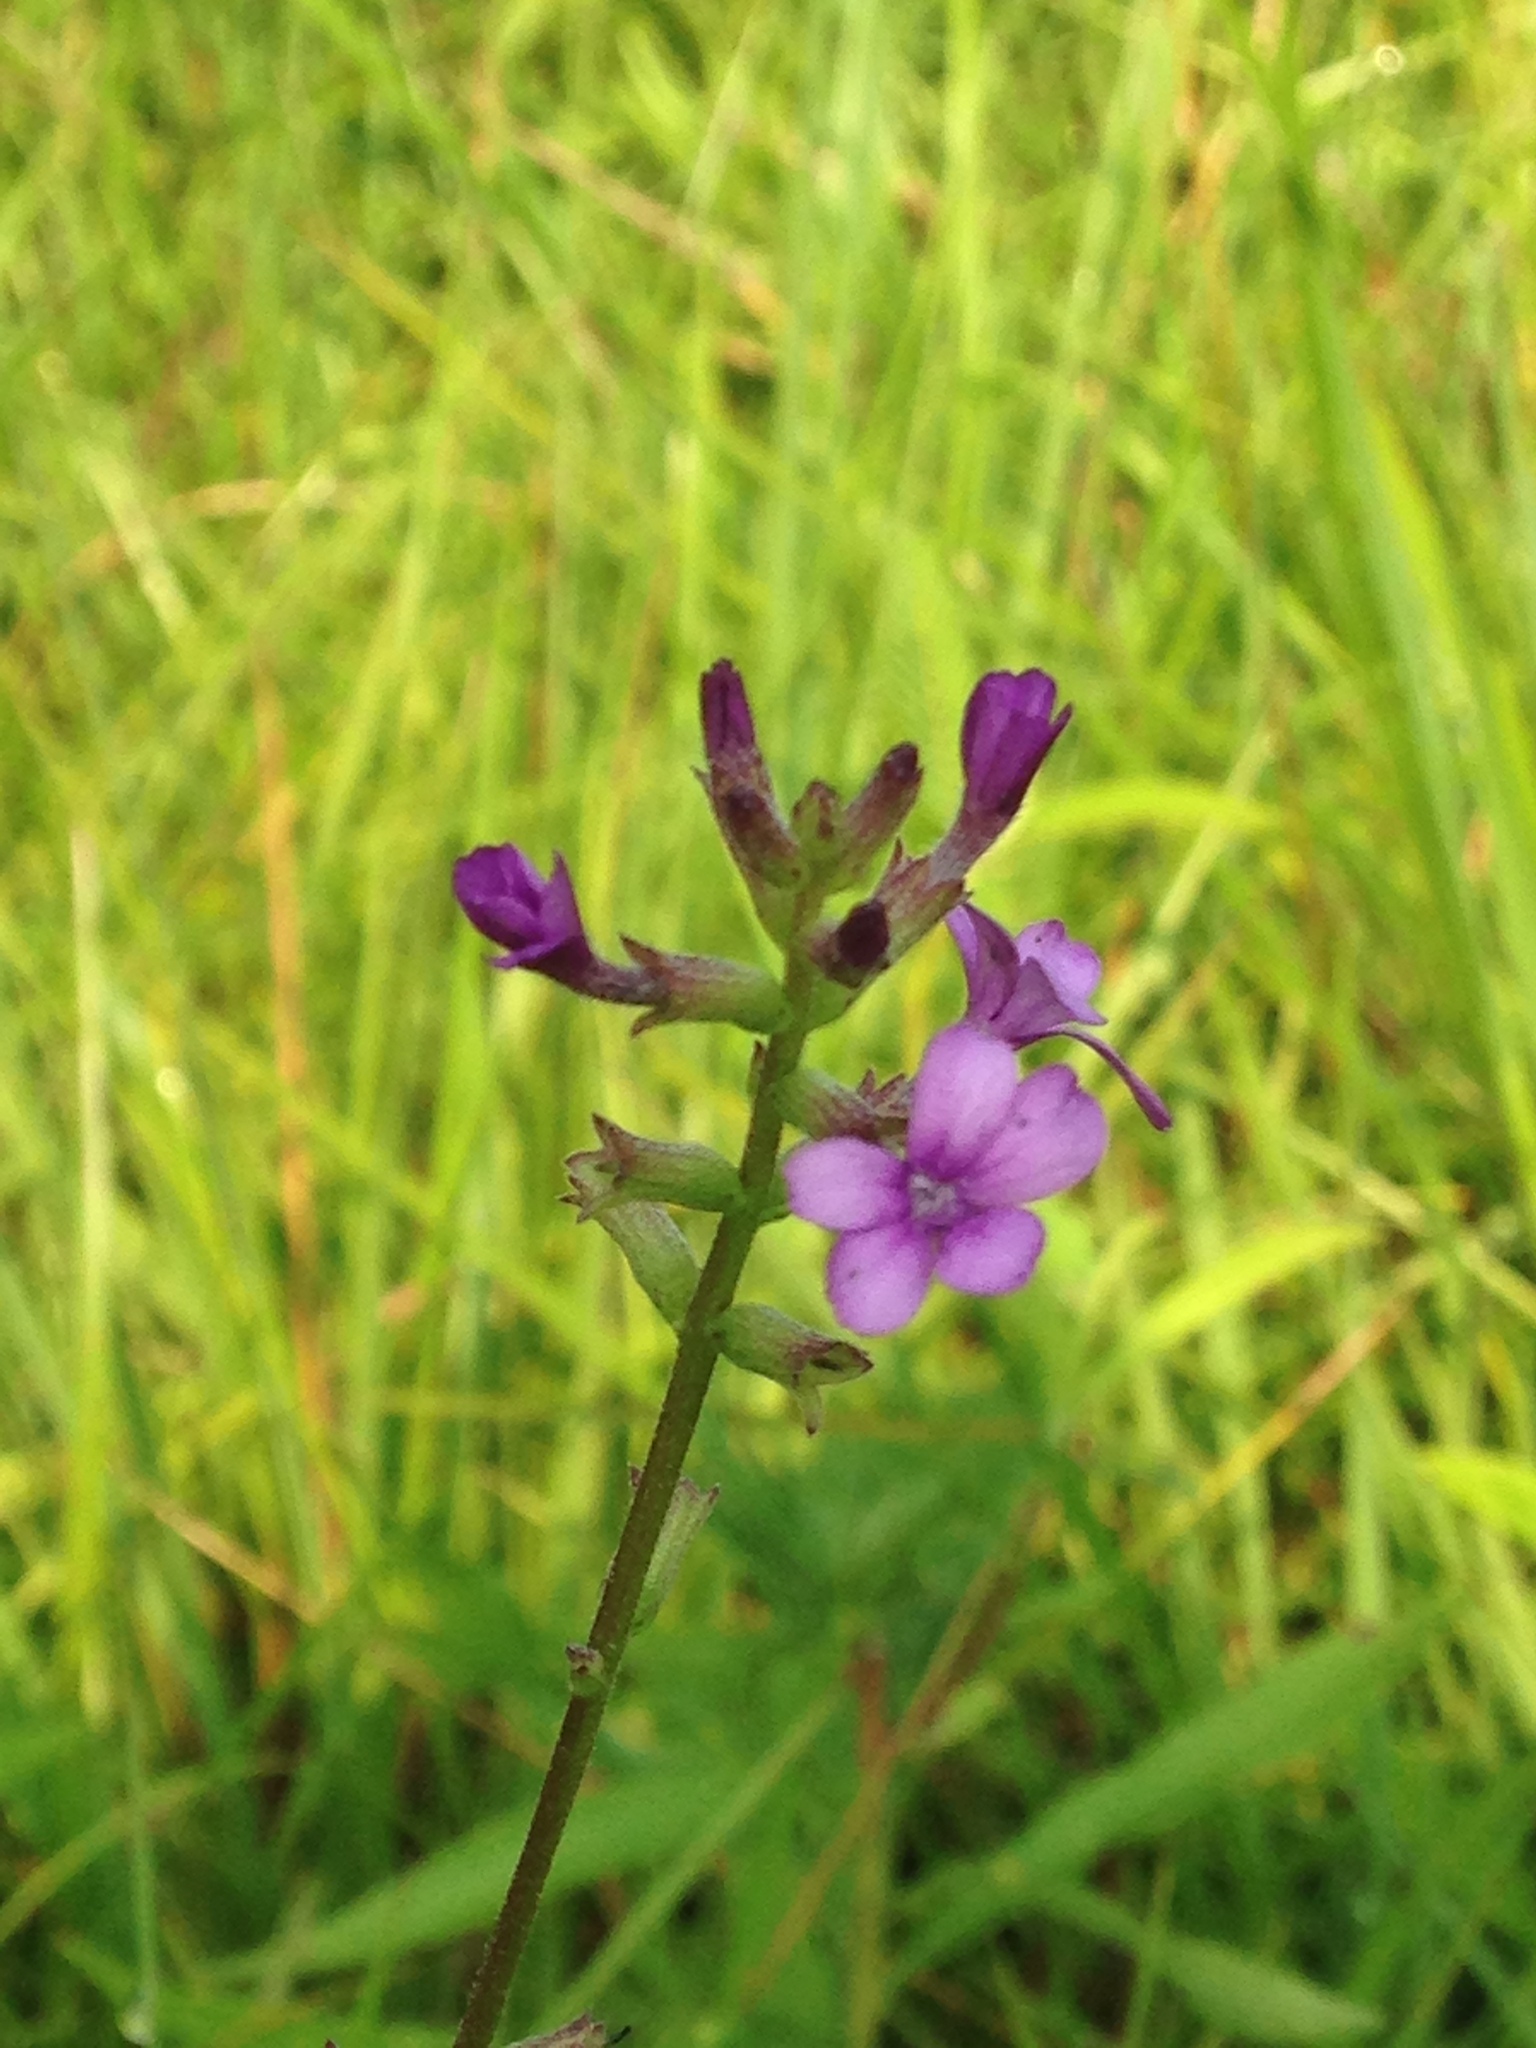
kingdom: Plantae
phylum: Tracheophyta
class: Magnoliopsida
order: Lamiales
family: Orobanchaceae
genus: Buchnera
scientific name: Buchnera floridana
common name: Florida bluehearts
